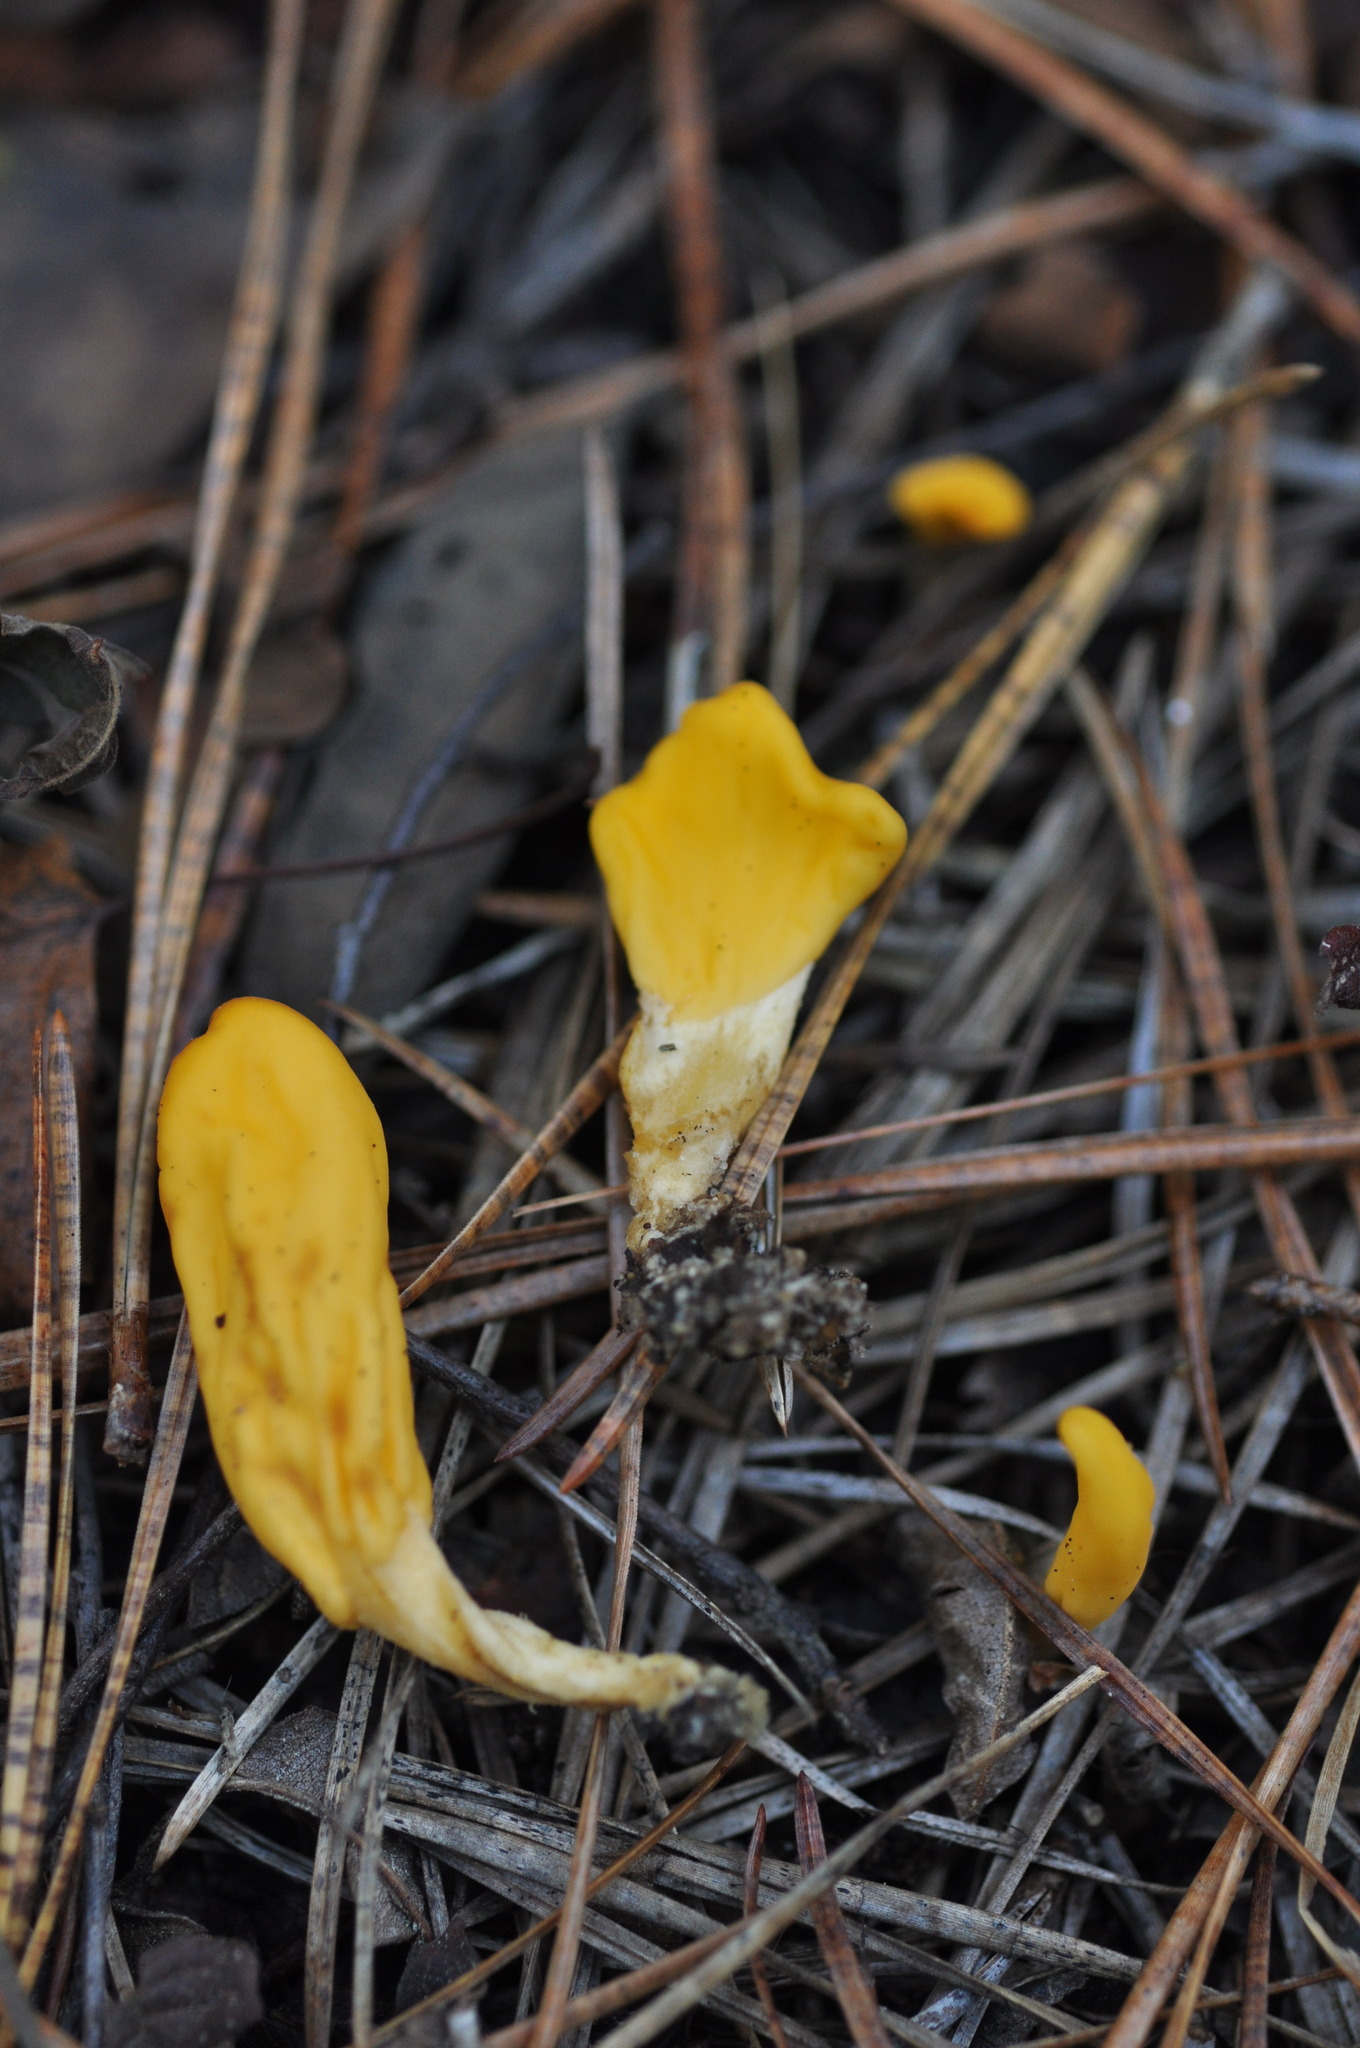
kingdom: Fungi
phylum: Ascomycota
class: Neolectomycetes
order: Neolectales
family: Neolectaceae
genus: Neolecta
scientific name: Neolecta irregularis
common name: Irregular earth tongue
